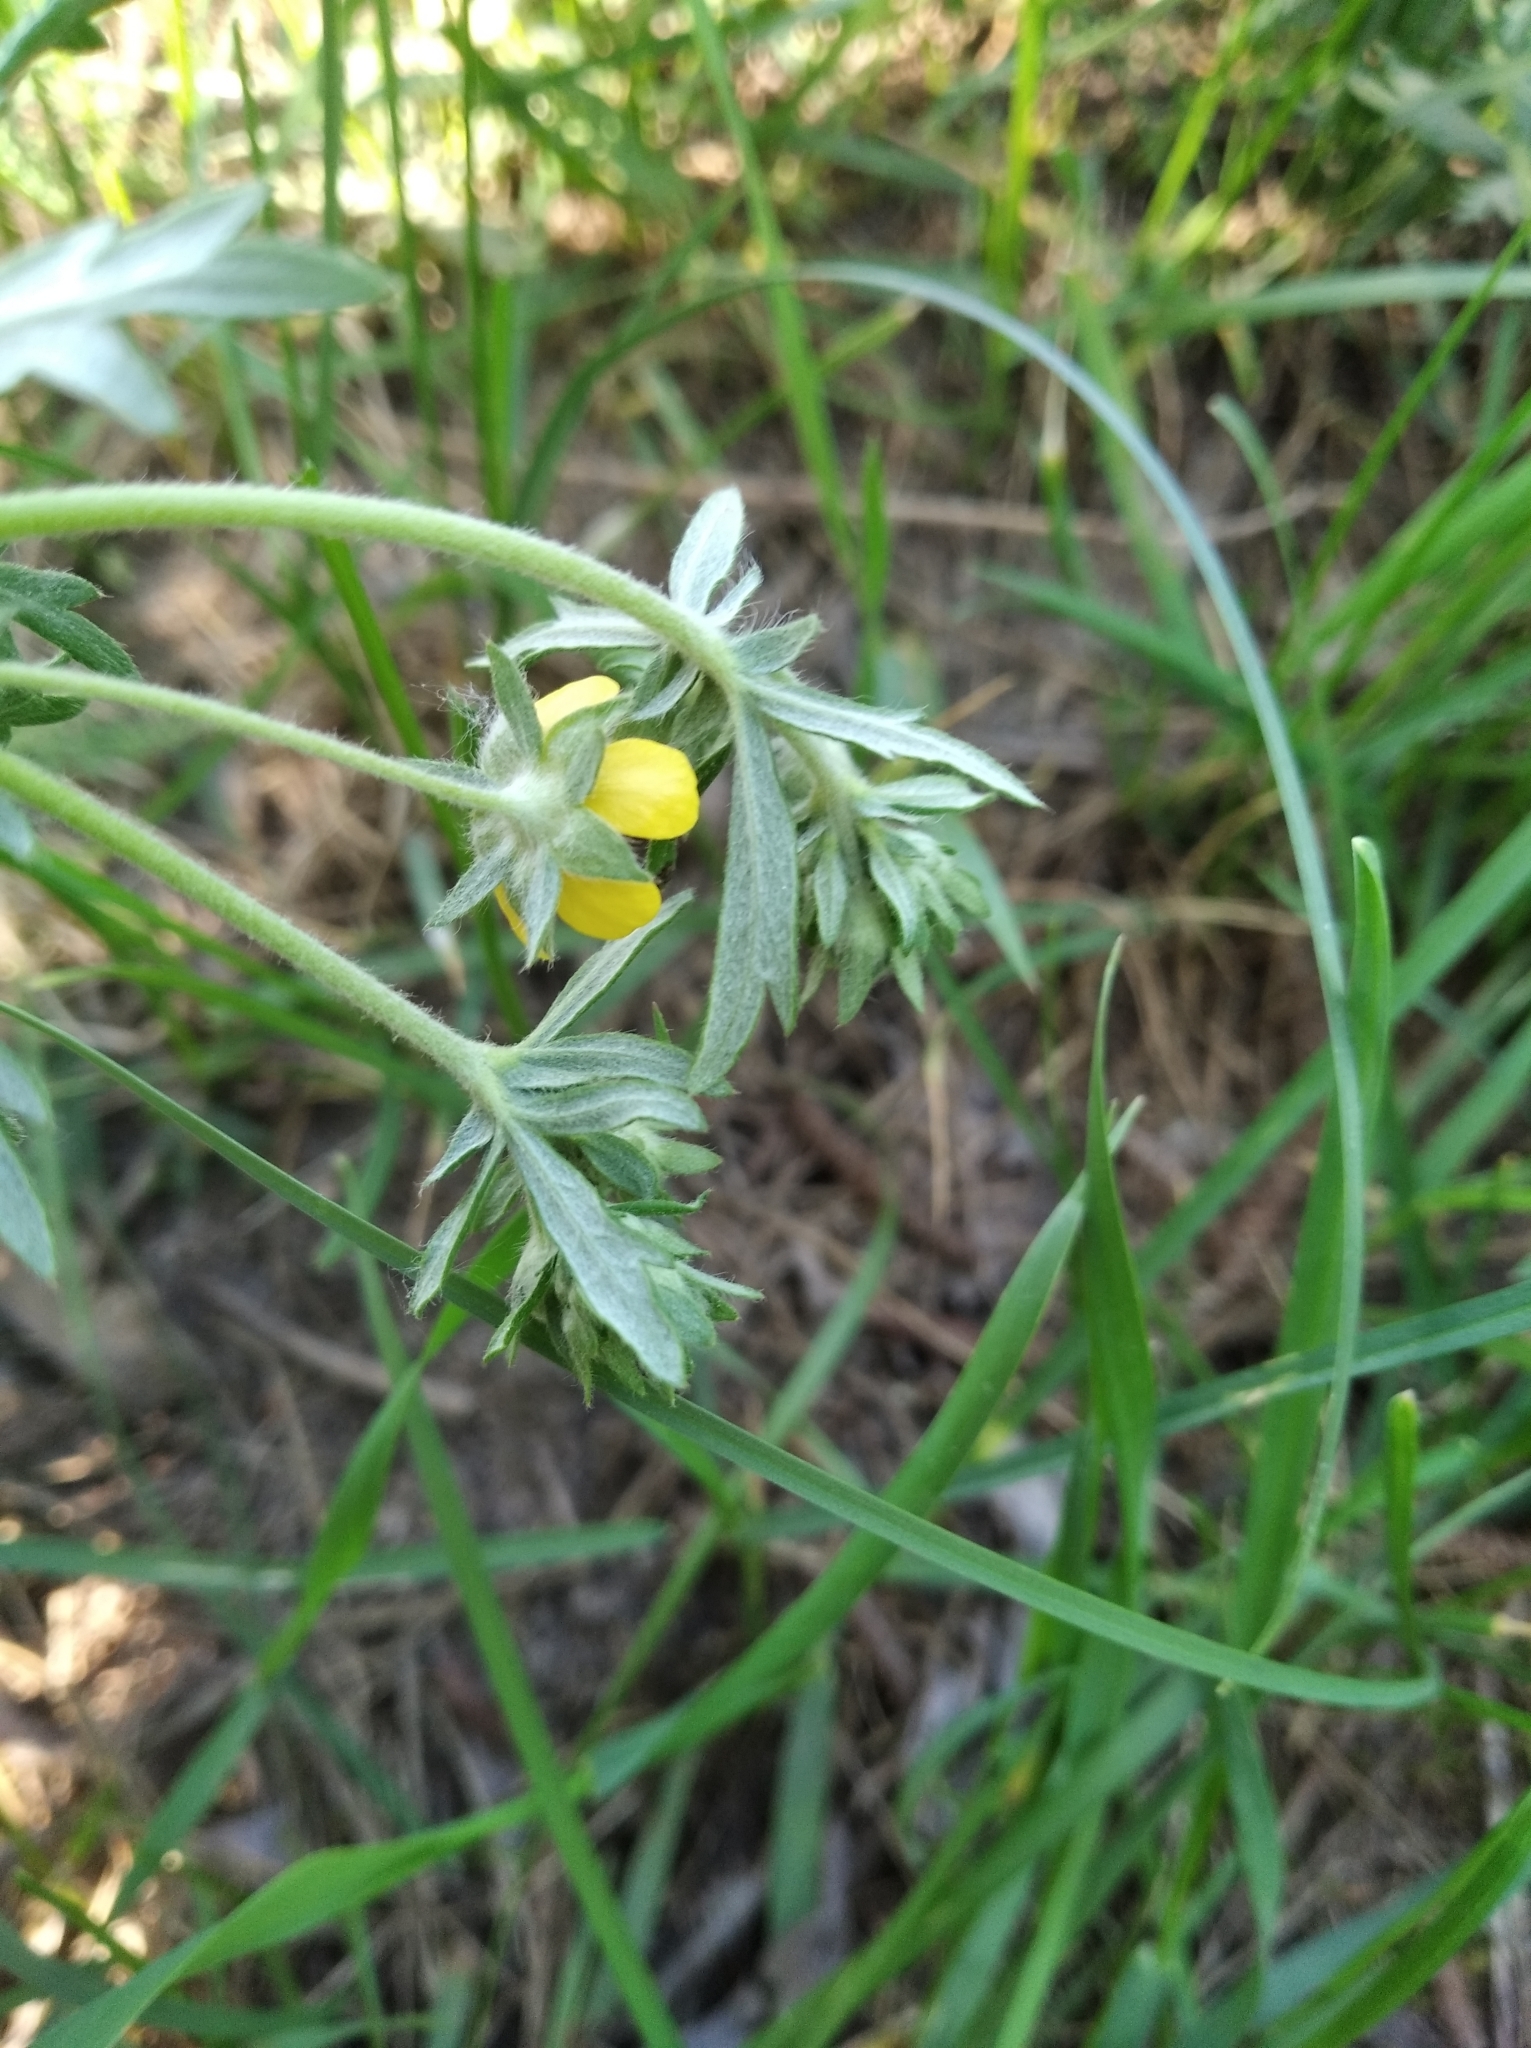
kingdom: Plantae
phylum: Tracheophyta
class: Magnoliopsida
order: Rosales
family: Rosaceae
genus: Potentilla
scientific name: Potentilla argentea
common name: Hoary cinquefoil
